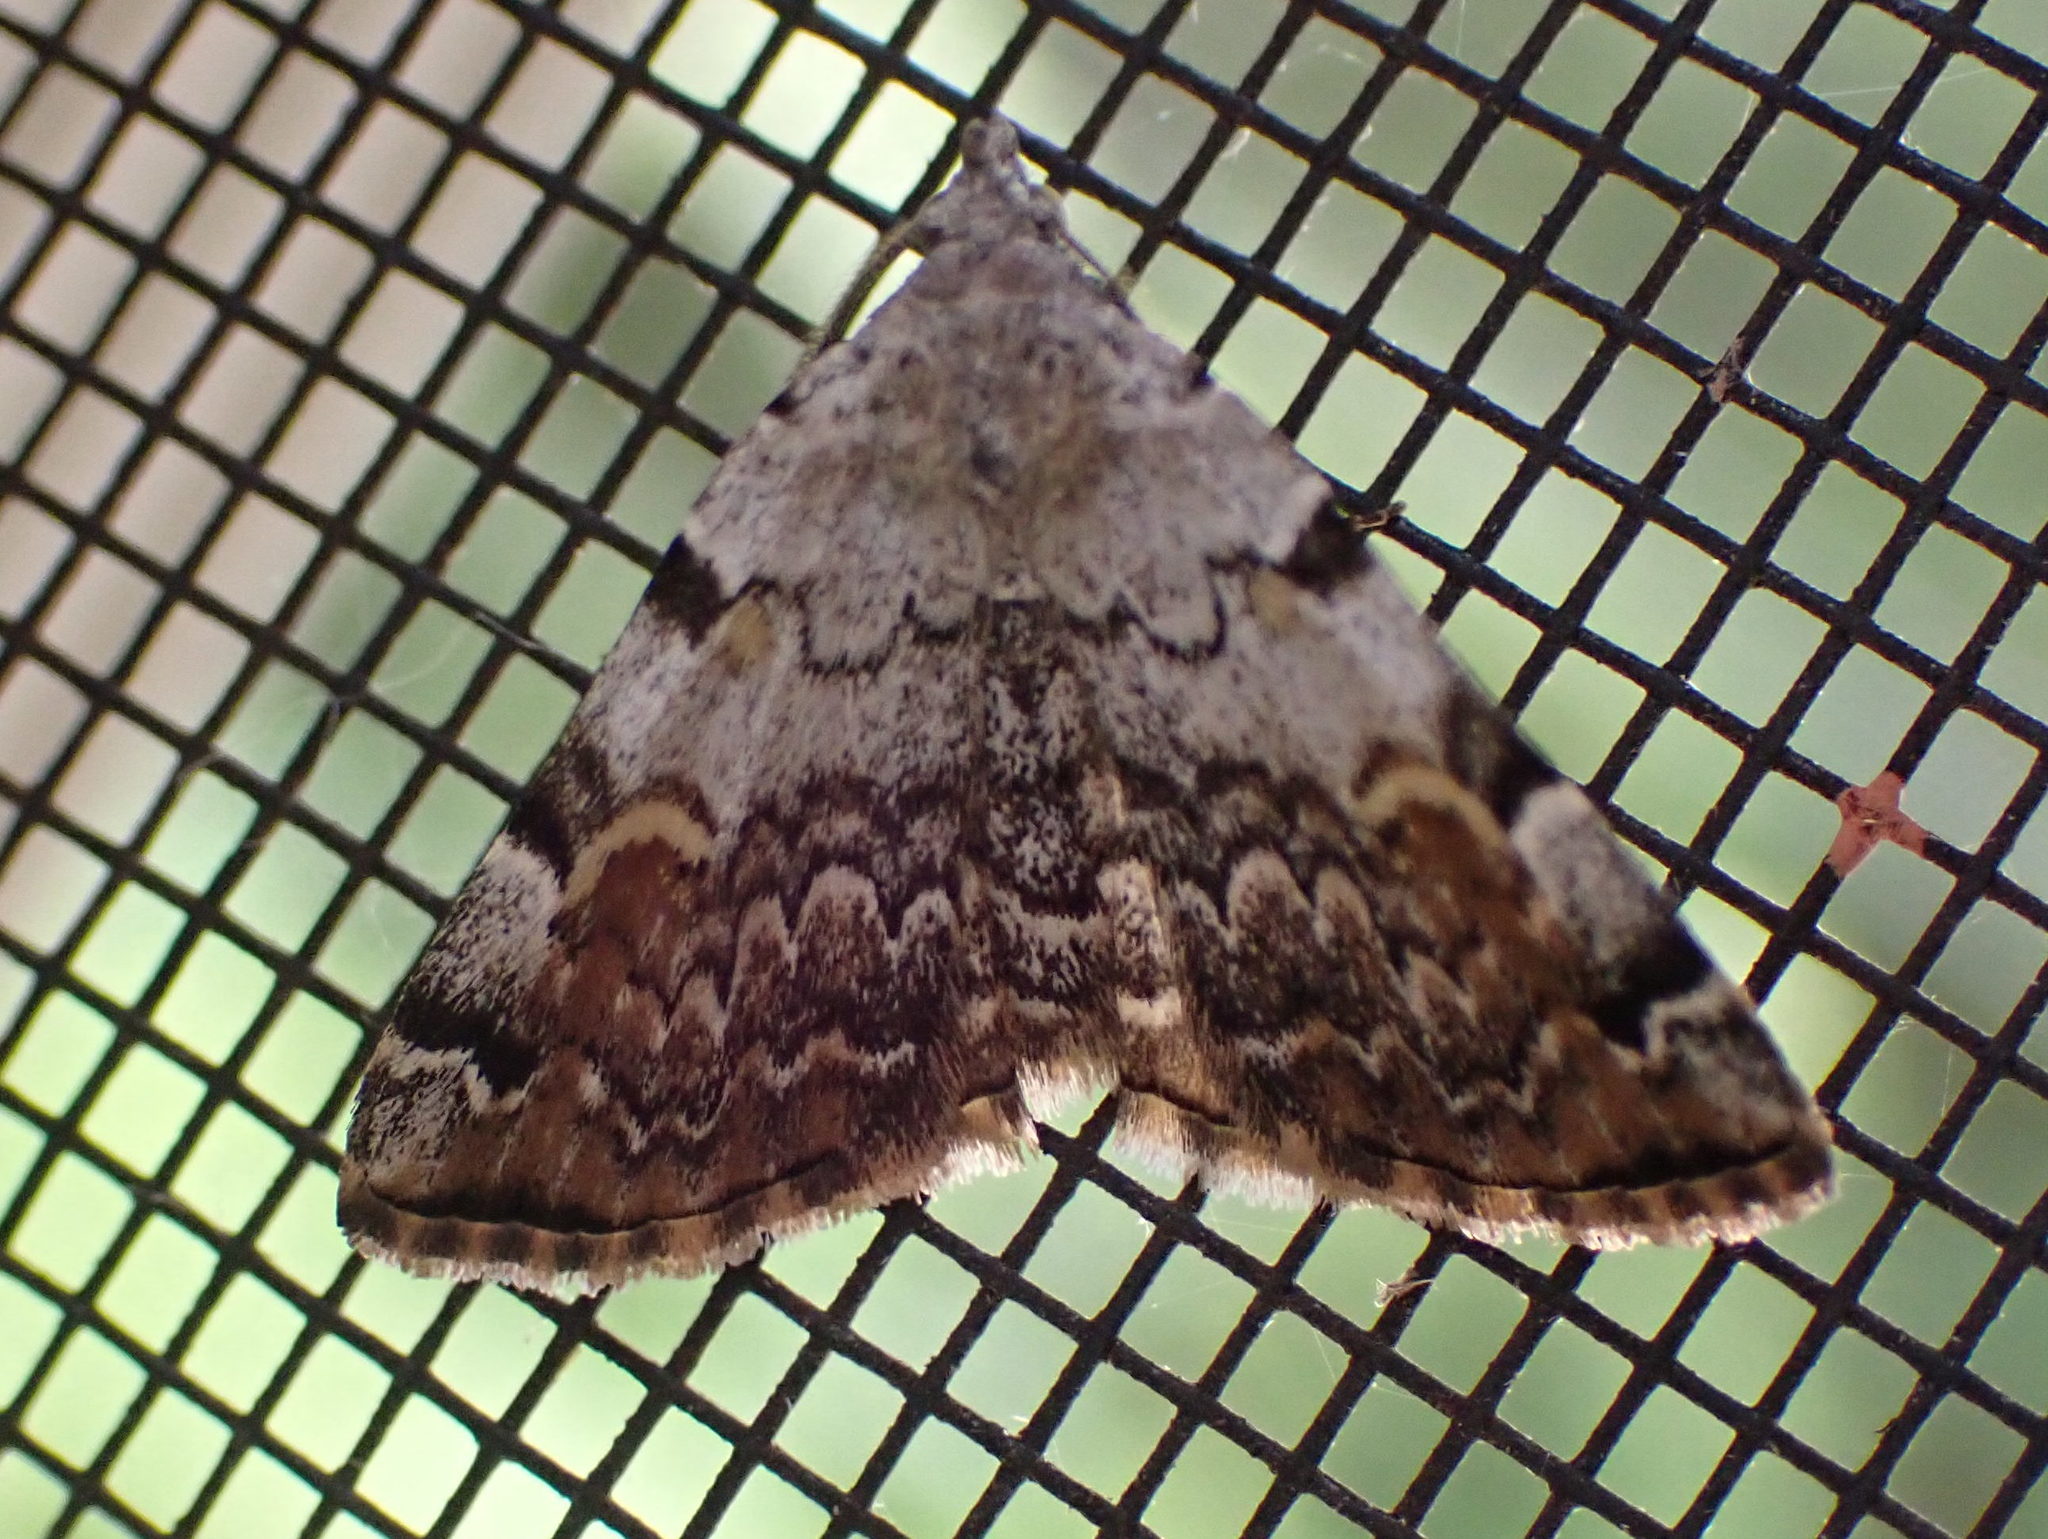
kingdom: Animalia
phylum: Arthropoda
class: Insecta
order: Lepidoptera
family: Erebidae
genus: Idia
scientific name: Idia americalis
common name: American idia moth
